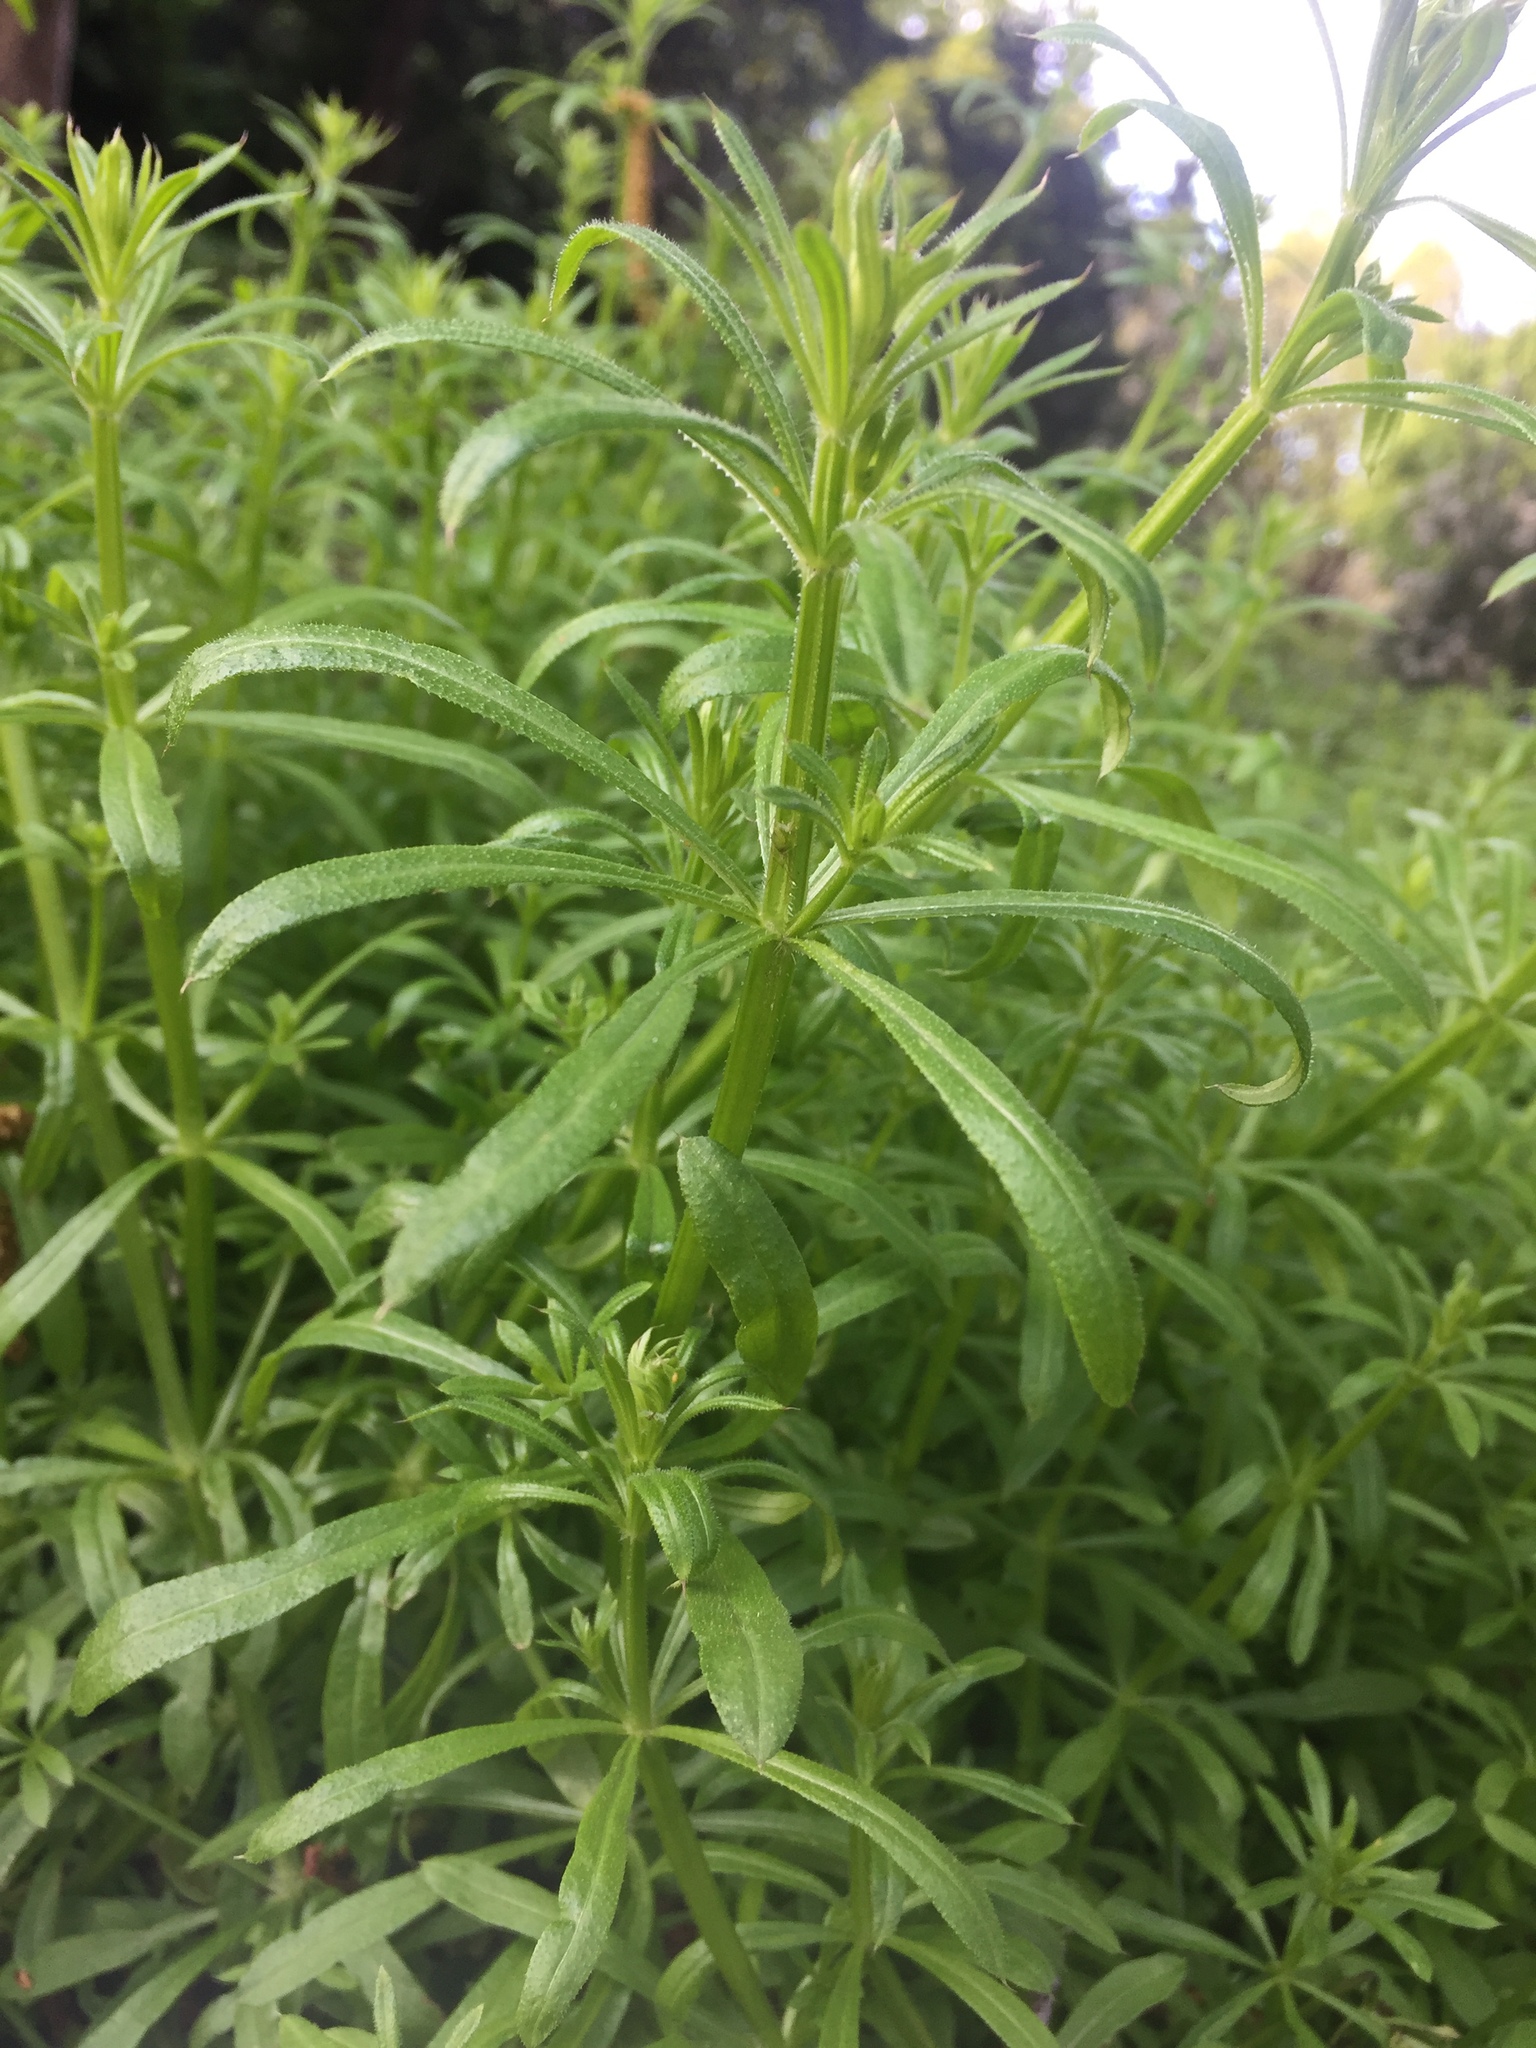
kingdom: Plantae
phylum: Tracheophyta
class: Magnoliopsida
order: Gentianales
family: Rubiaceae
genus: Galium
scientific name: Galium aparine
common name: Cleavers
